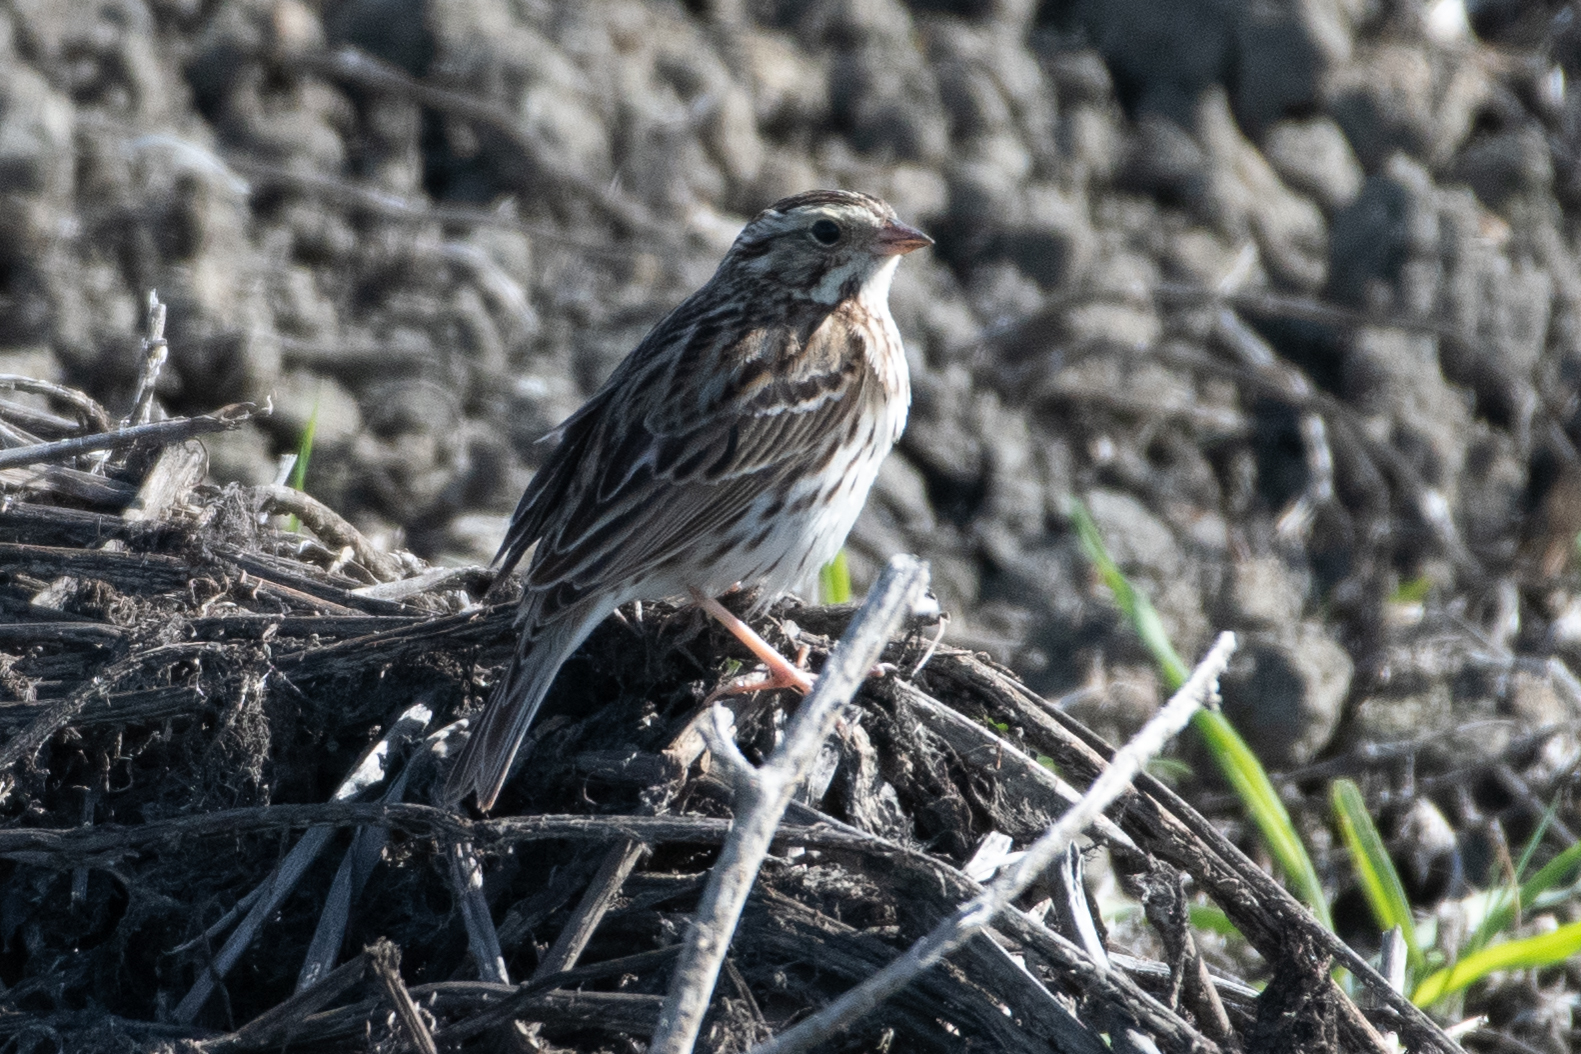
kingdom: Animalia
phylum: Chordata
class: Aves
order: Passeriformes
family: Passerellidae
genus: Passerculus
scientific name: Passerculus sandwichensis
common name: Savannah sparrow
